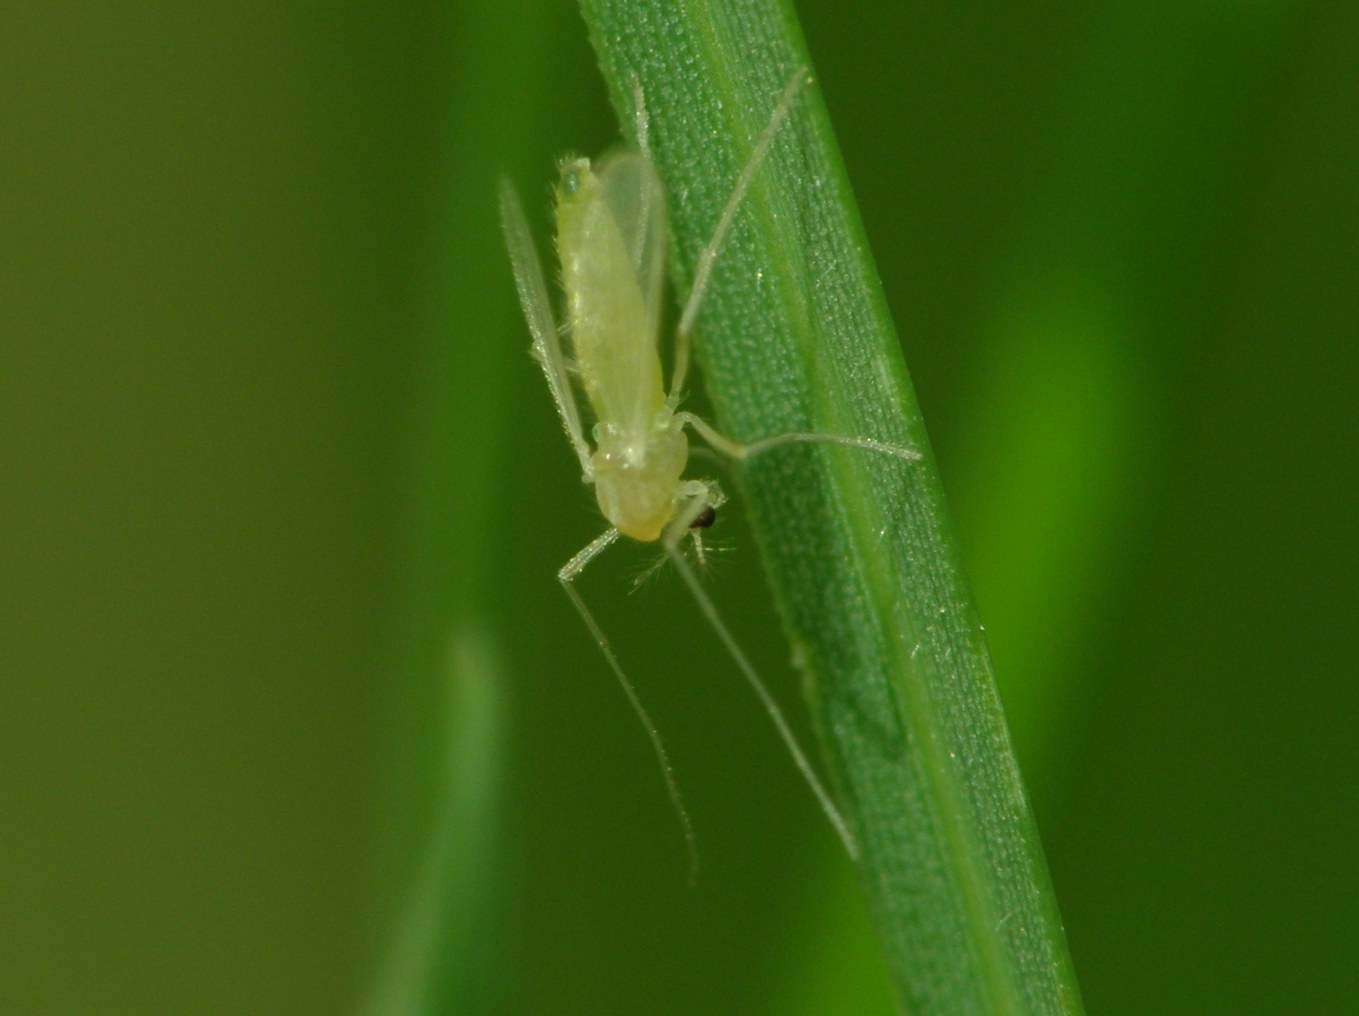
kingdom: Animalia
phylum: Arthropoda
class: Insecta
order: Diptera
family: Chironomidae
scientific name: Chironomidae
